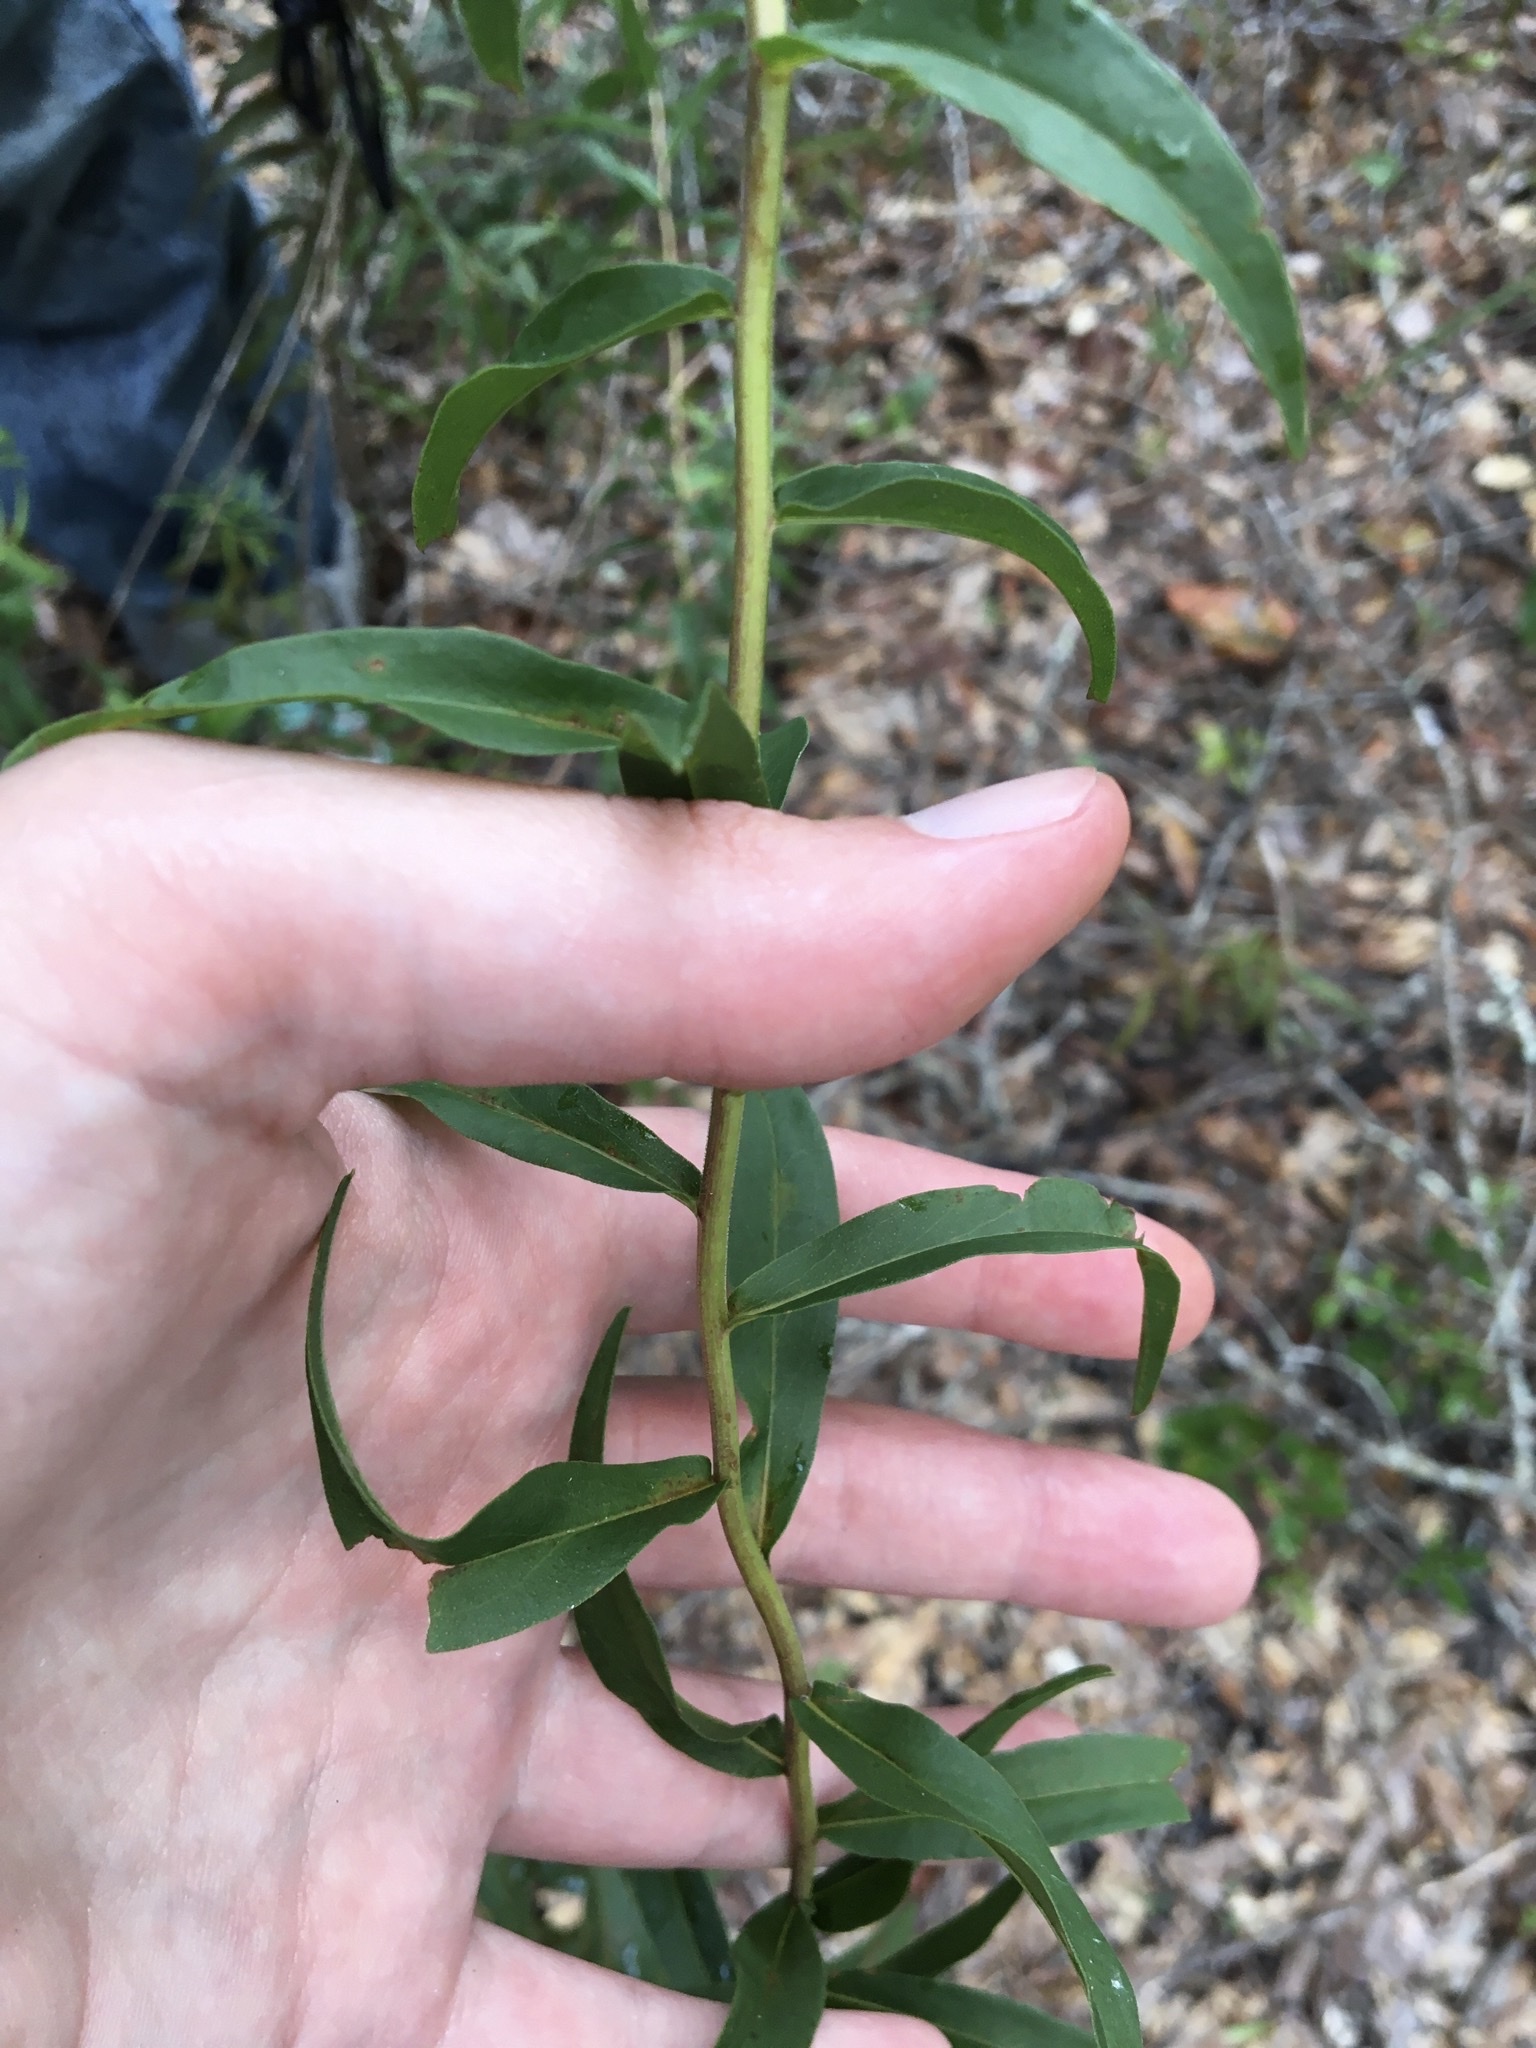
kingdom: Plantae
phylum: Tracheophyta
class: Magnoliopsida
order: Asterales
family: Asteraceae
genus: Solidago
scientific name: Solidago odora
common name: Anise-scented goldenrod
